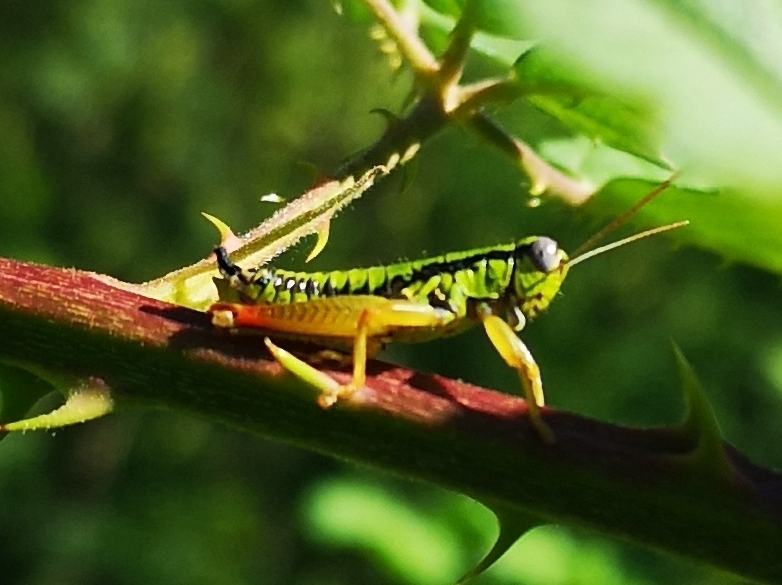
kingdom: Animalia
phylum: Arthropoda
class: Insecta
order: Orthoptera
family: Acrididae
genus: Micropodisma
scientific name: Micropodisma salamandra
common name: Foothill mountain grasshopper
